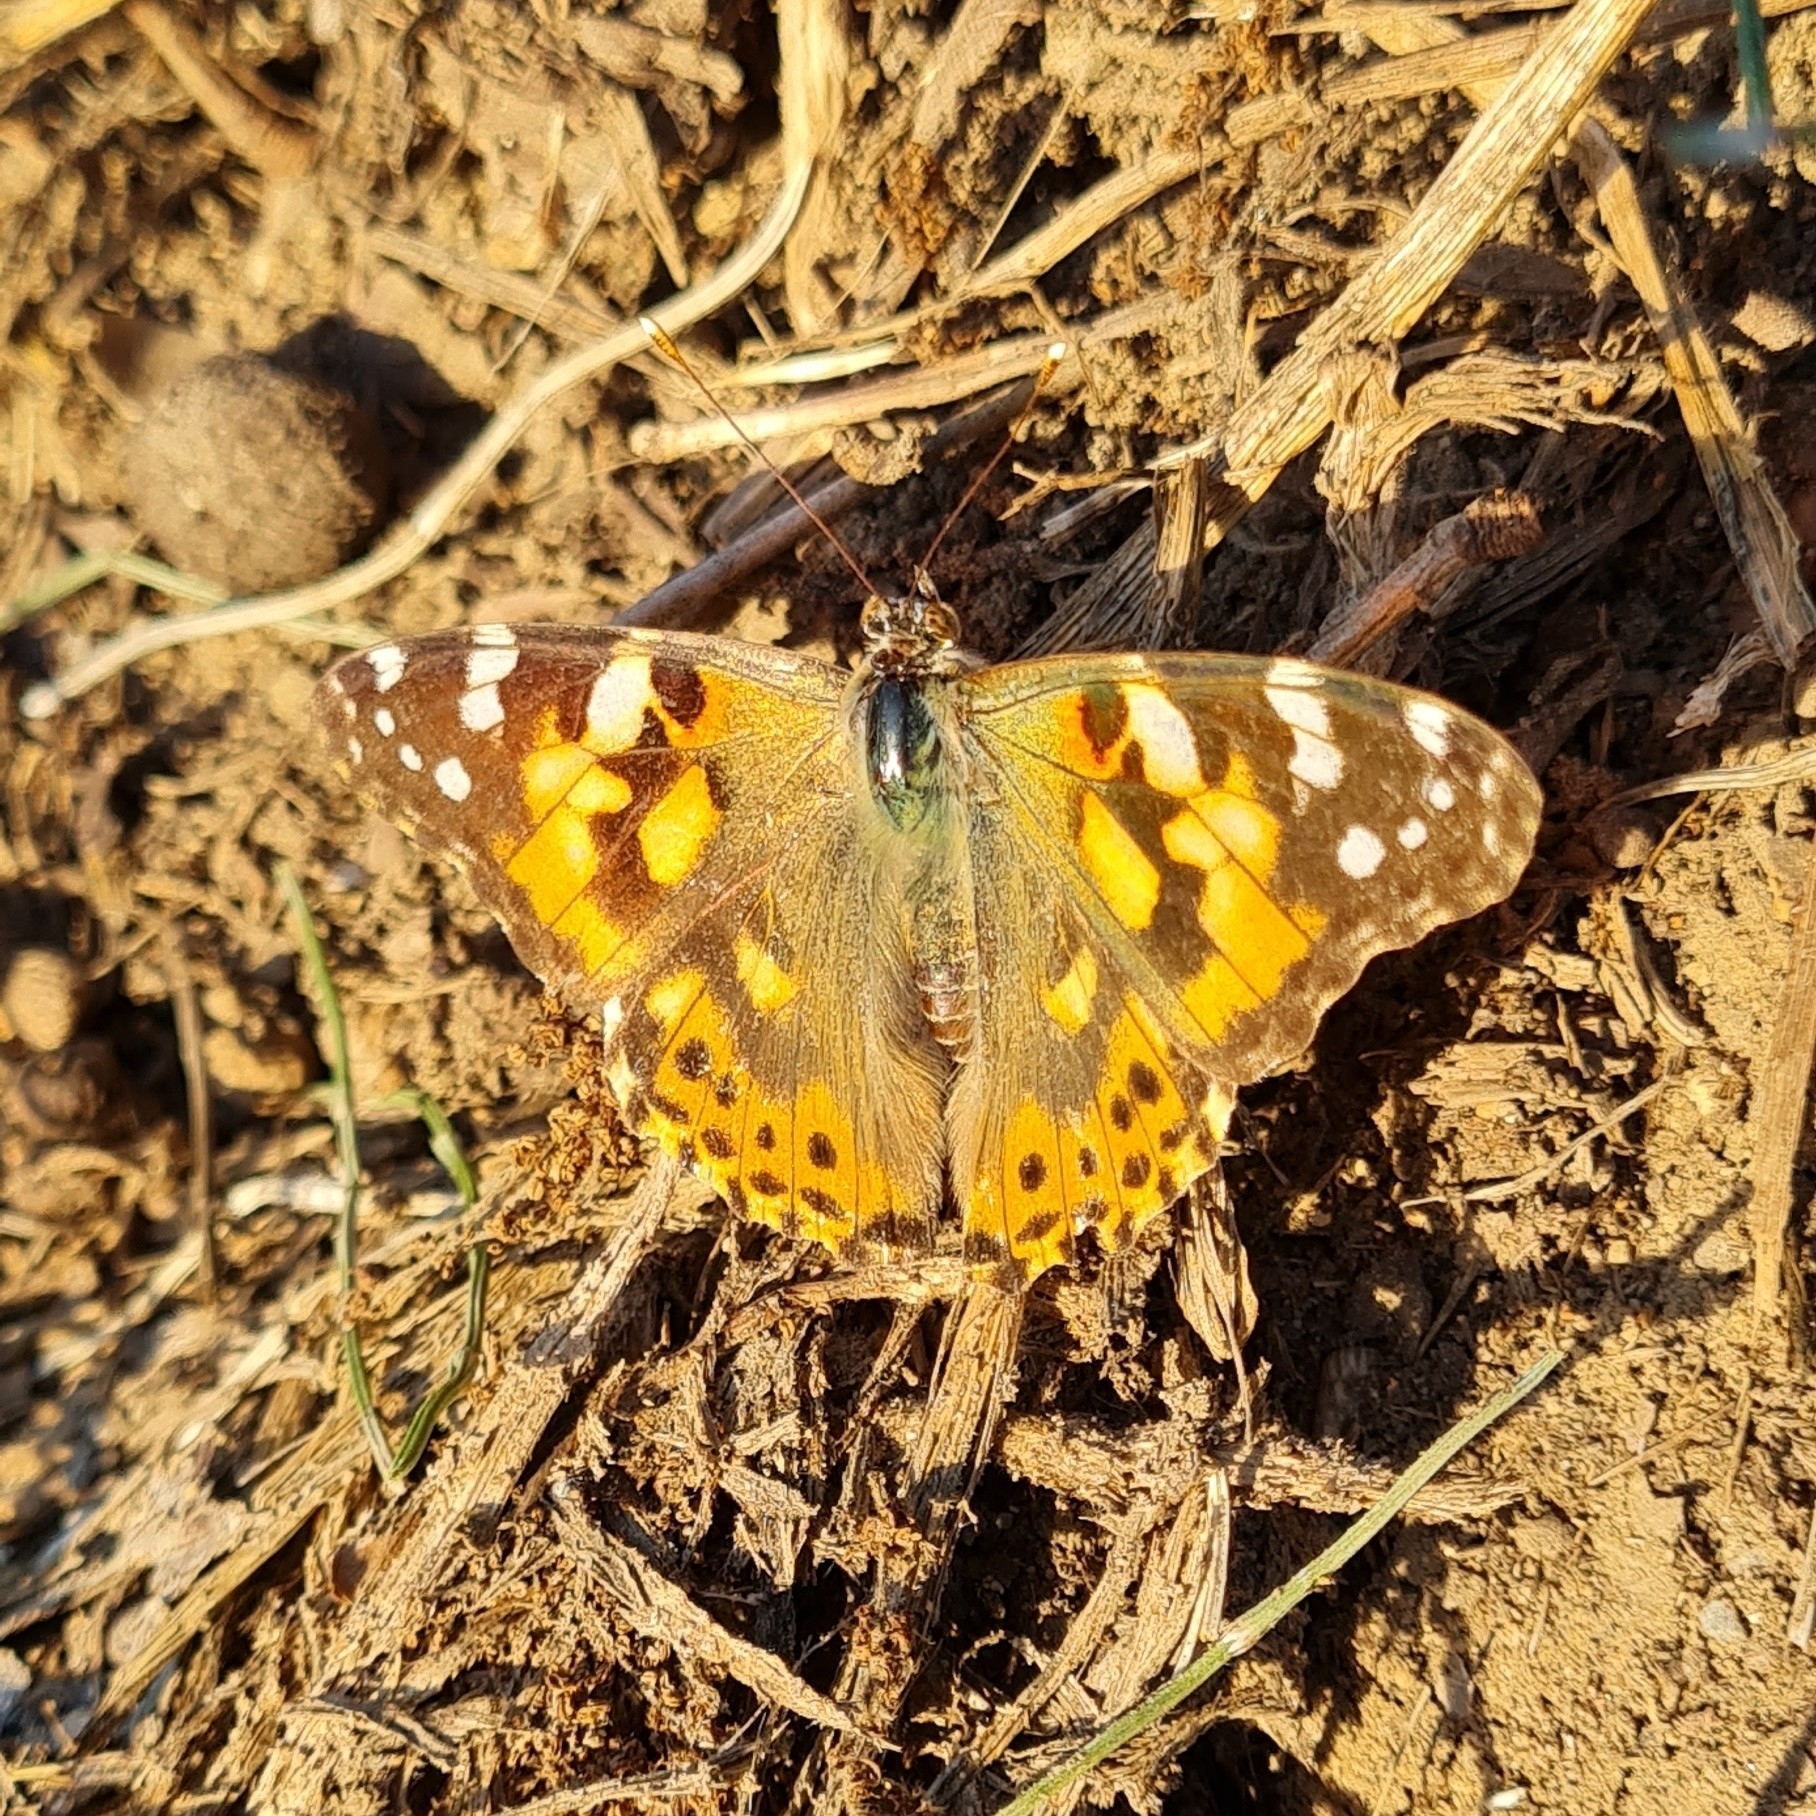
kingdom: Animalia
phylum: Arthropoda
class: Insecta
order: Lepidoptera
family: Nymphalidae
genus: Vanessa
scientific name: Vanessa cardui
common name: Painted lady
